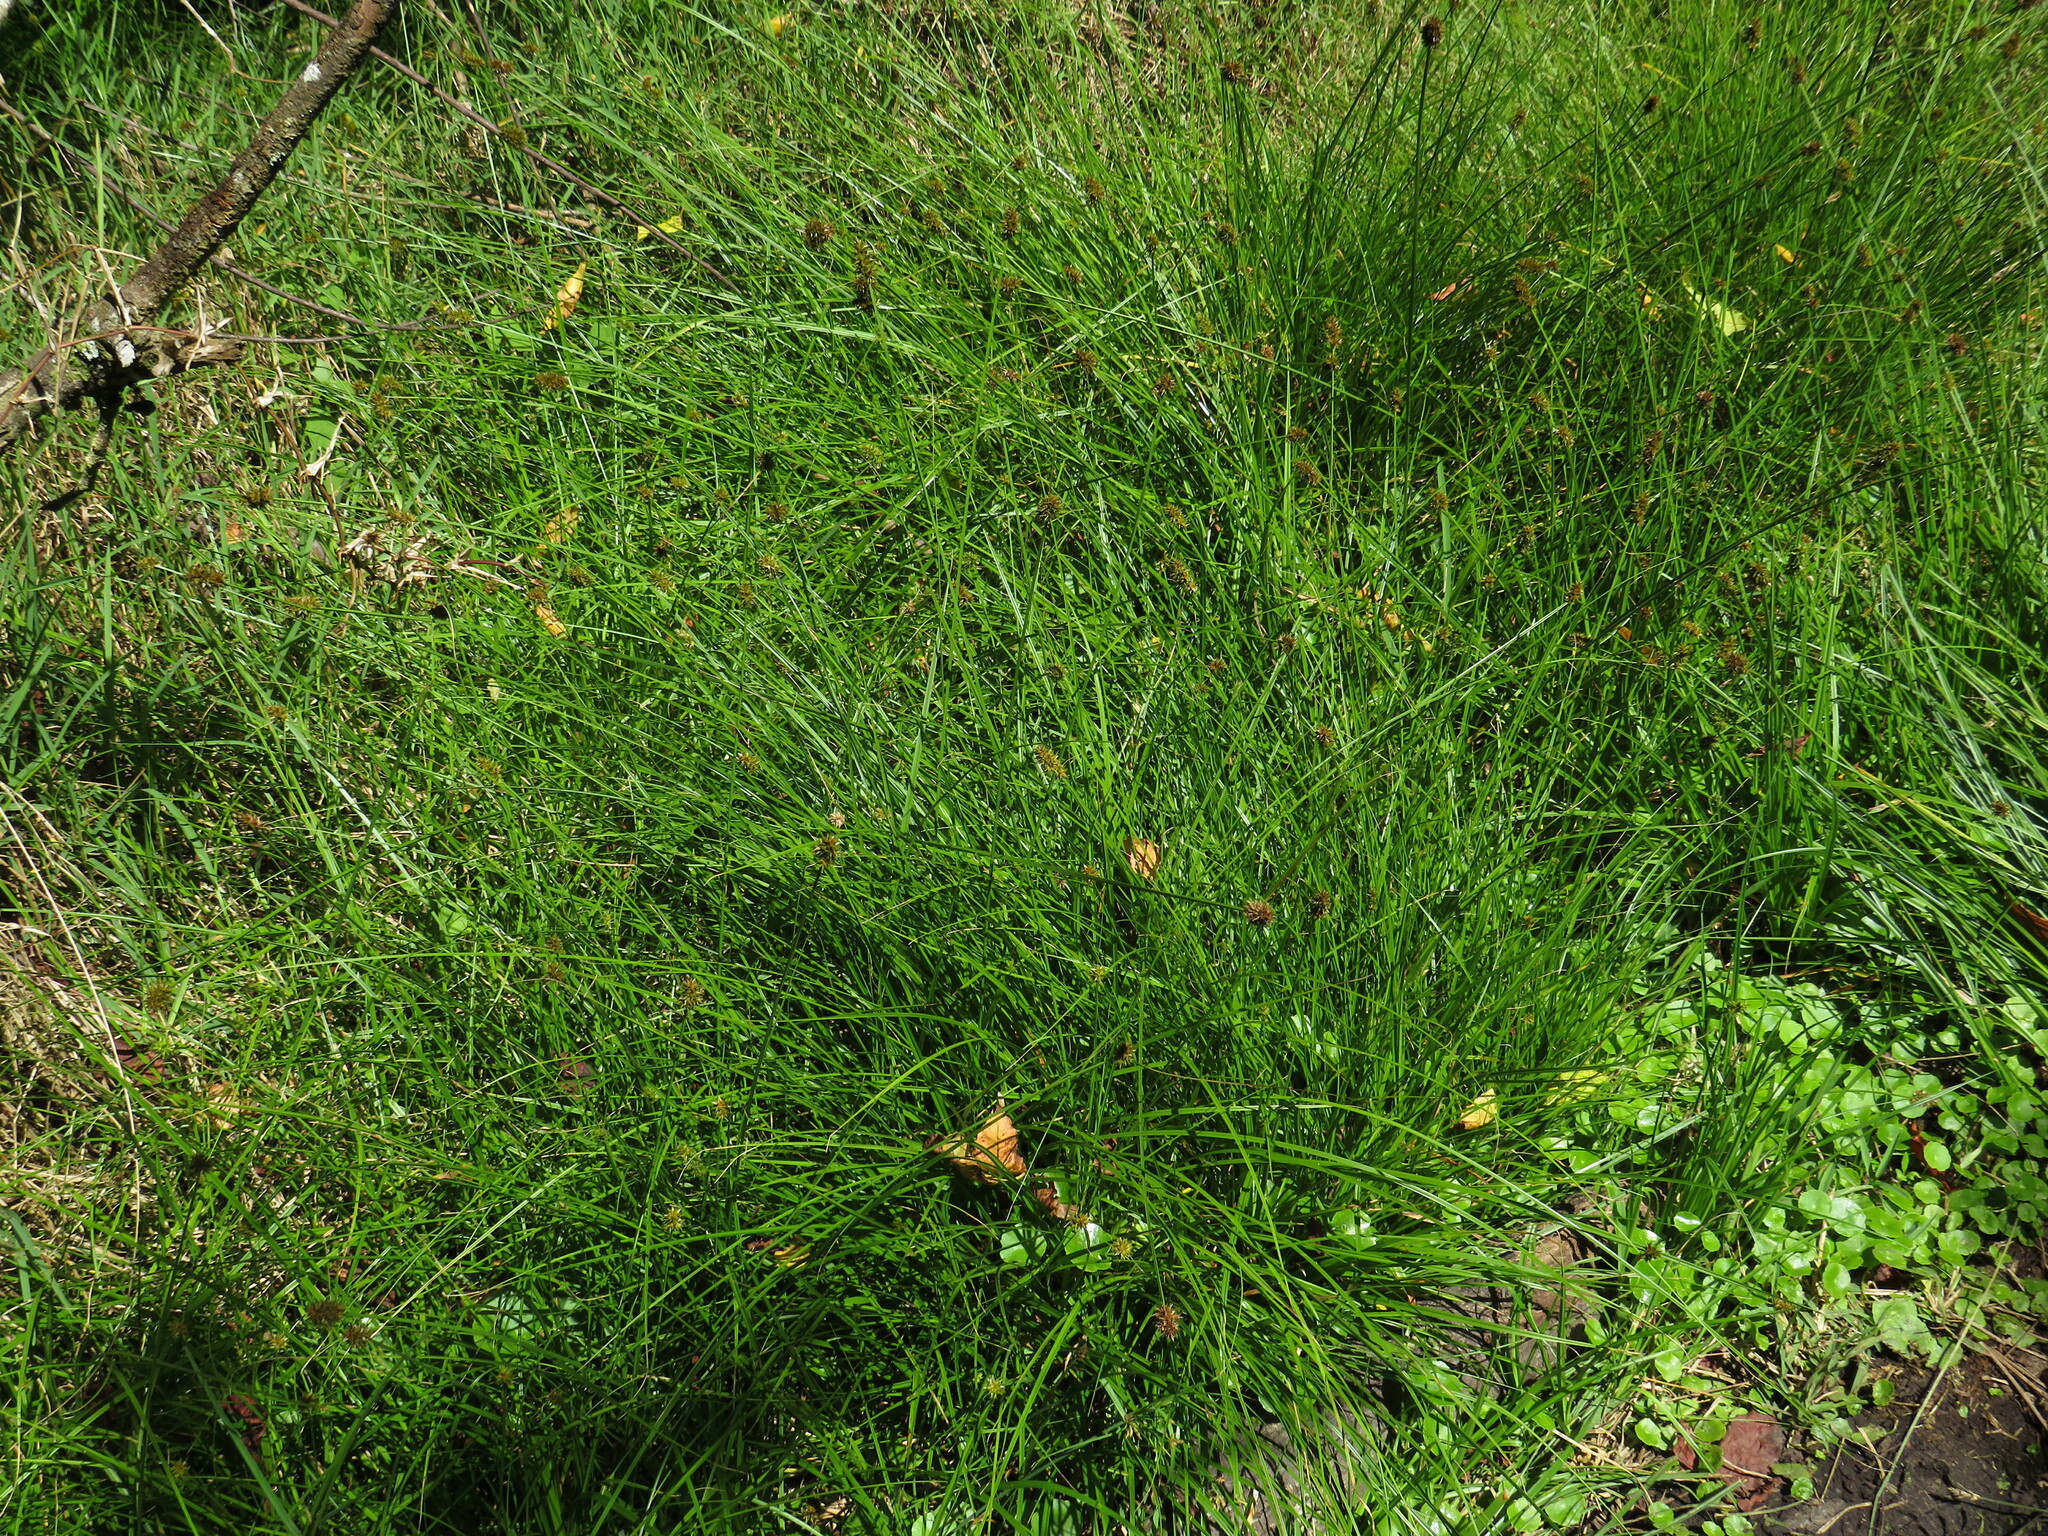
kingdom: Plantae
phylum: Tracheophyta
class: Liliopsida
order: Poales
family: Cyperaceae
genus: Carex
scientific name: Carex glomerata
